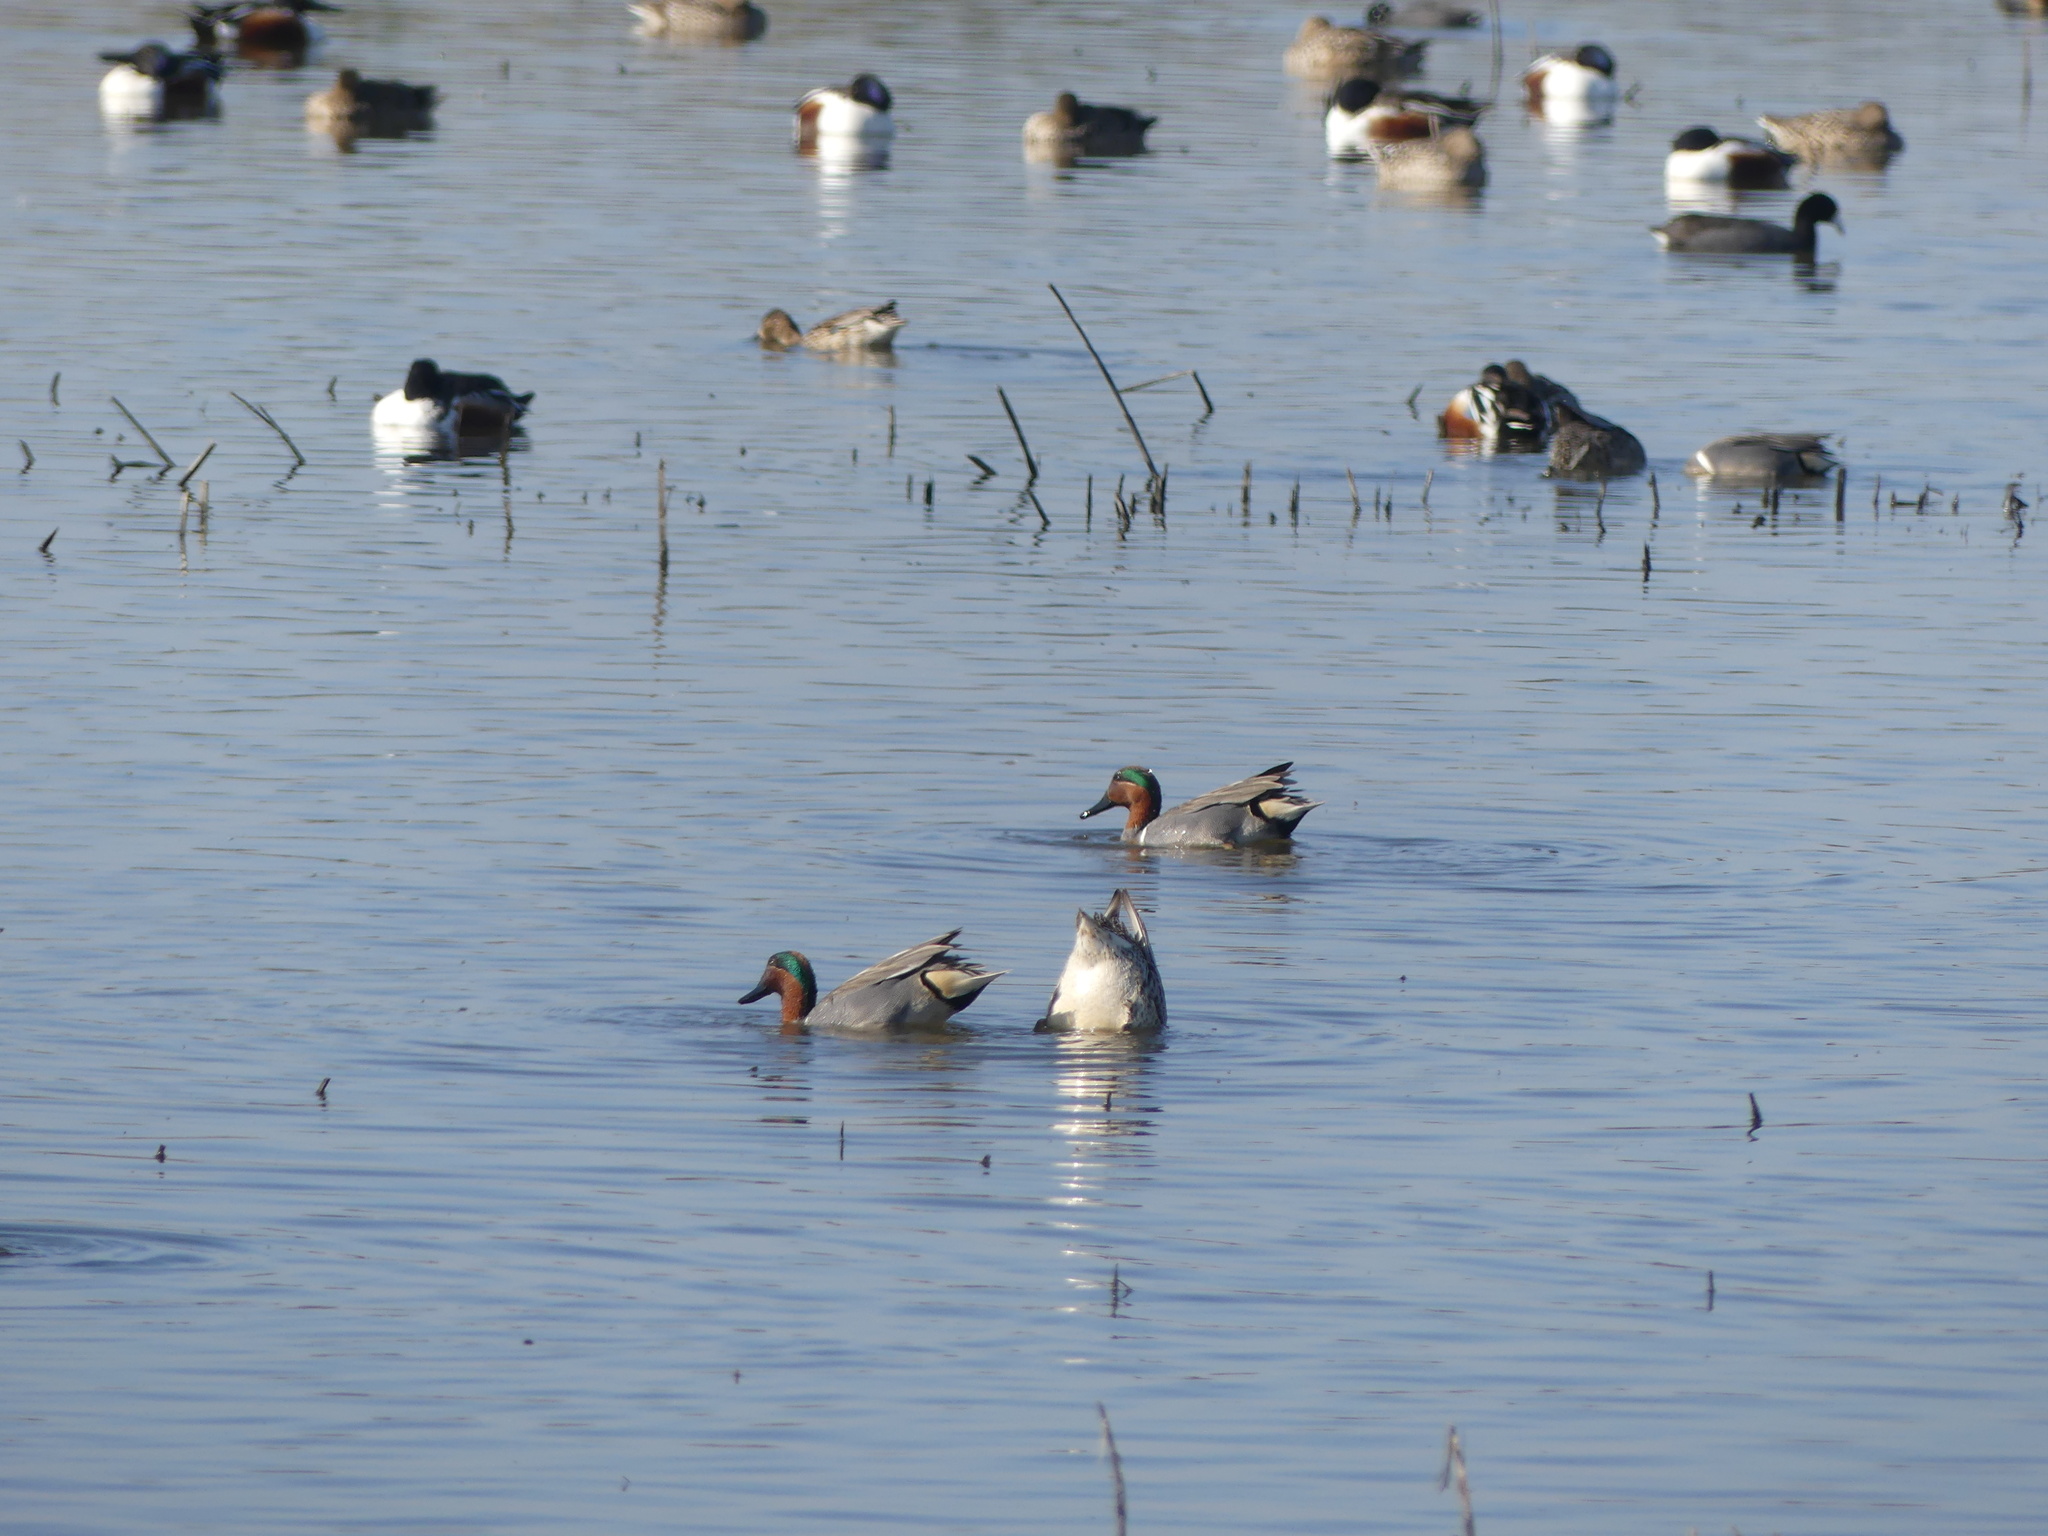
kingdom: Animalia
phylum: Chordata
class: Aves
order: Anseriformes
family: Anatidae
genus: Anas
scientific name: Anas crecca
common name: Eurasian teal
